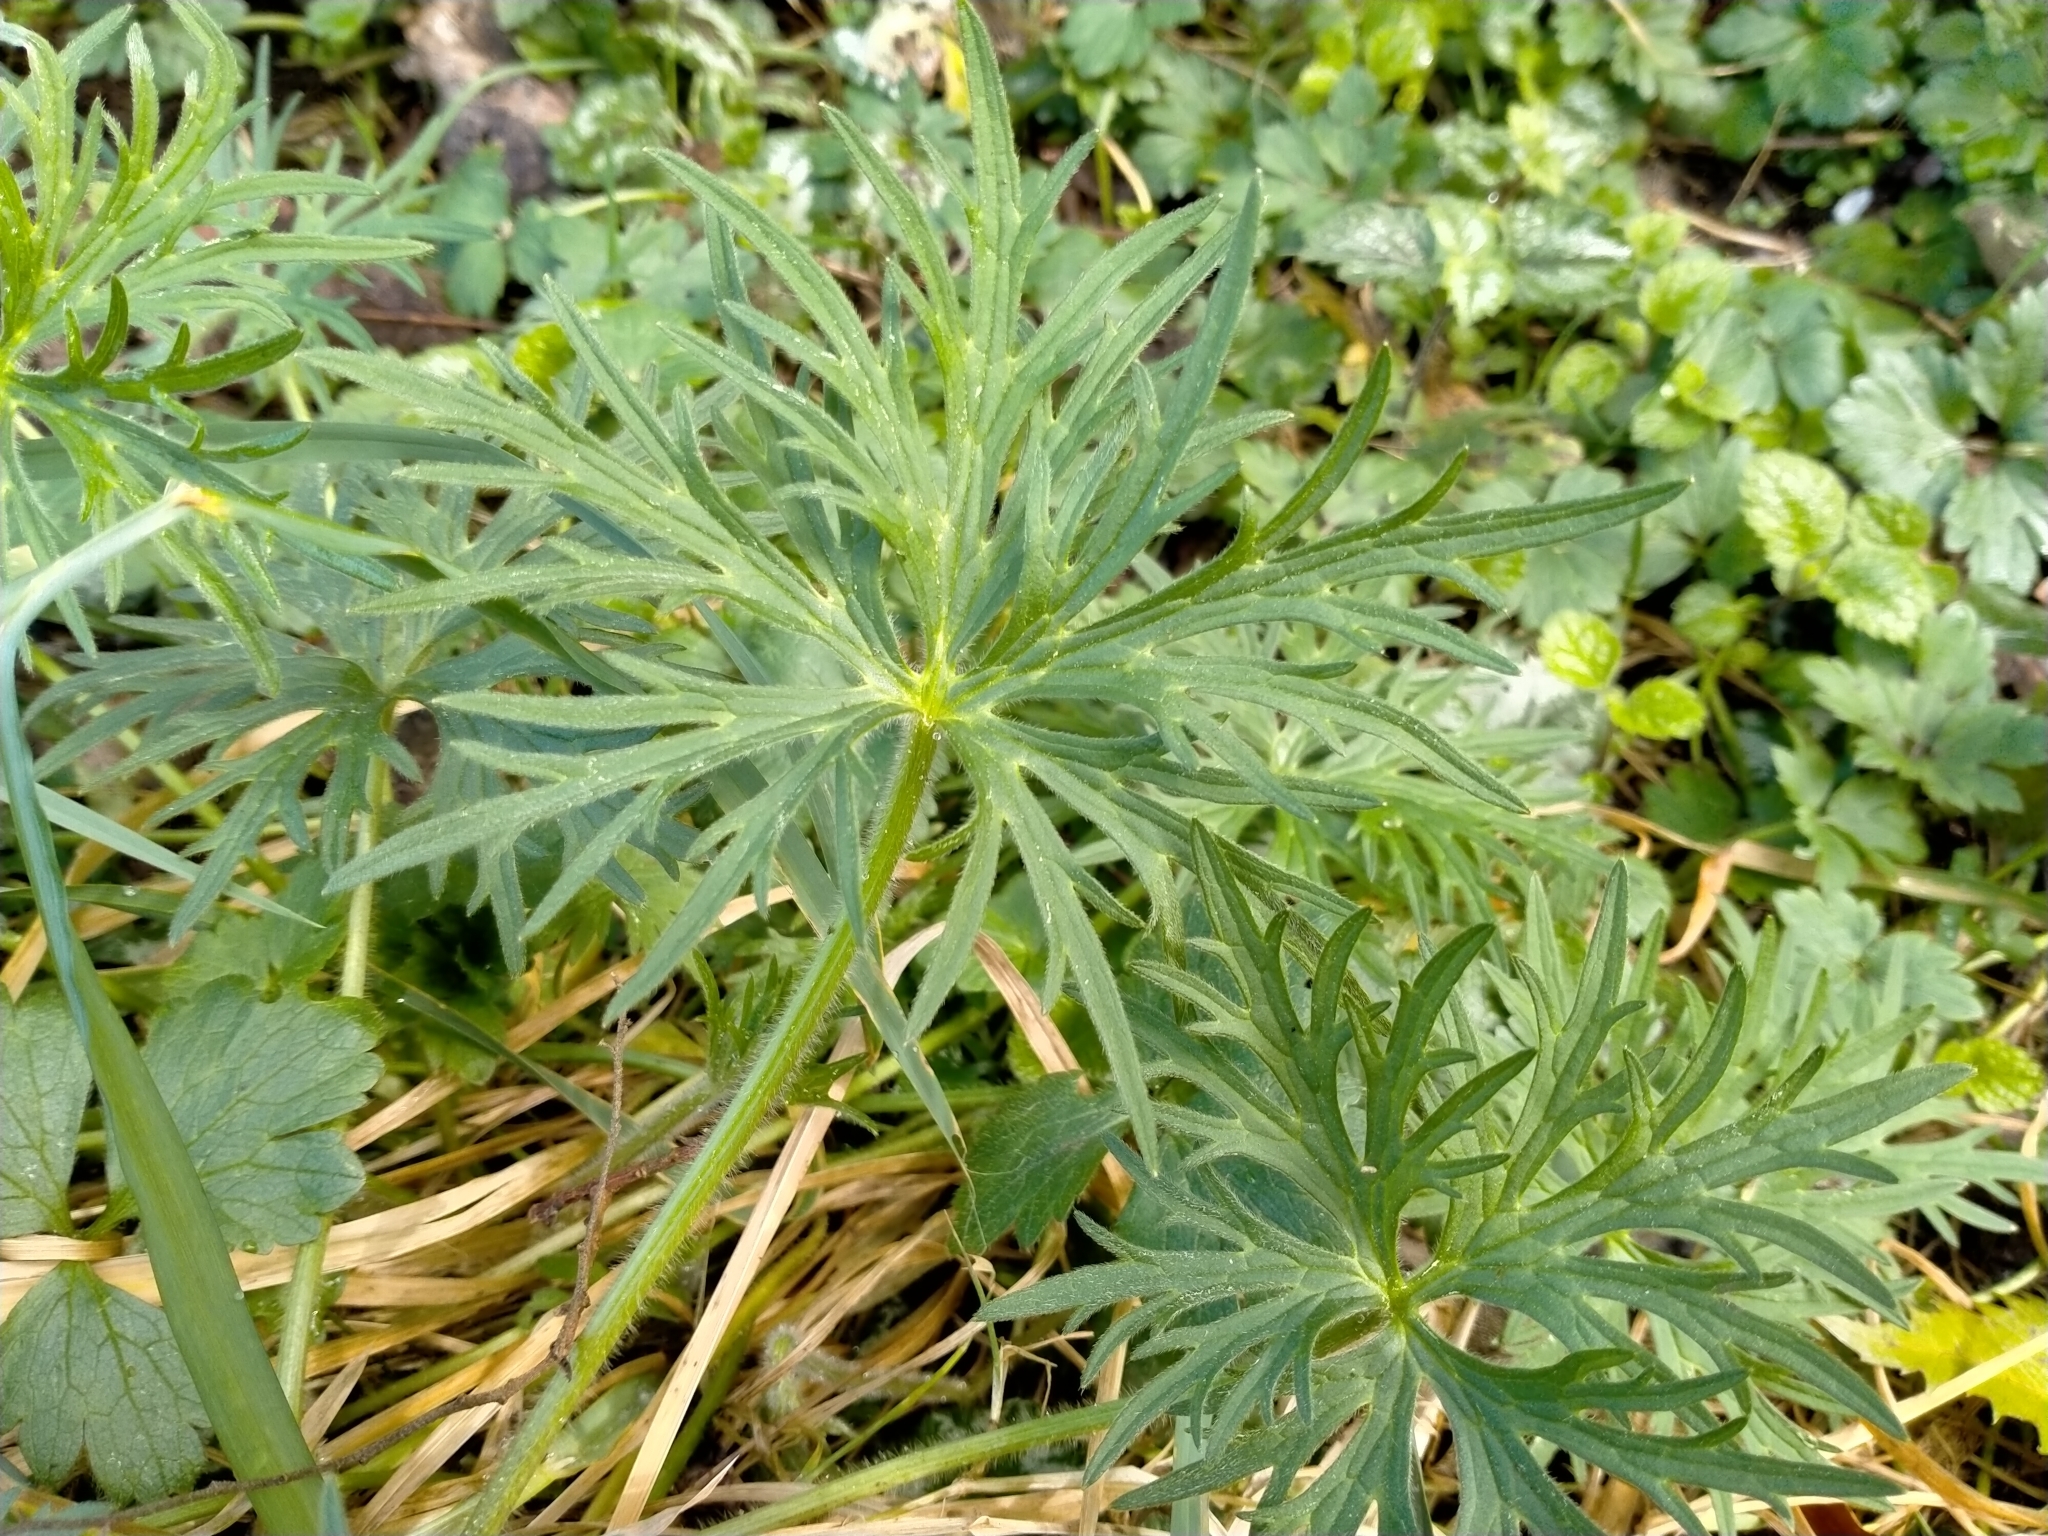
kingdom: Plantae
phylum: Tracheophyta
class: Magnoliopsida
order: Ranunculales
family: Ranunculaceae
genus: Ranunculus
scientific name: Ranunculus acris
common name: Meadow buttercup
